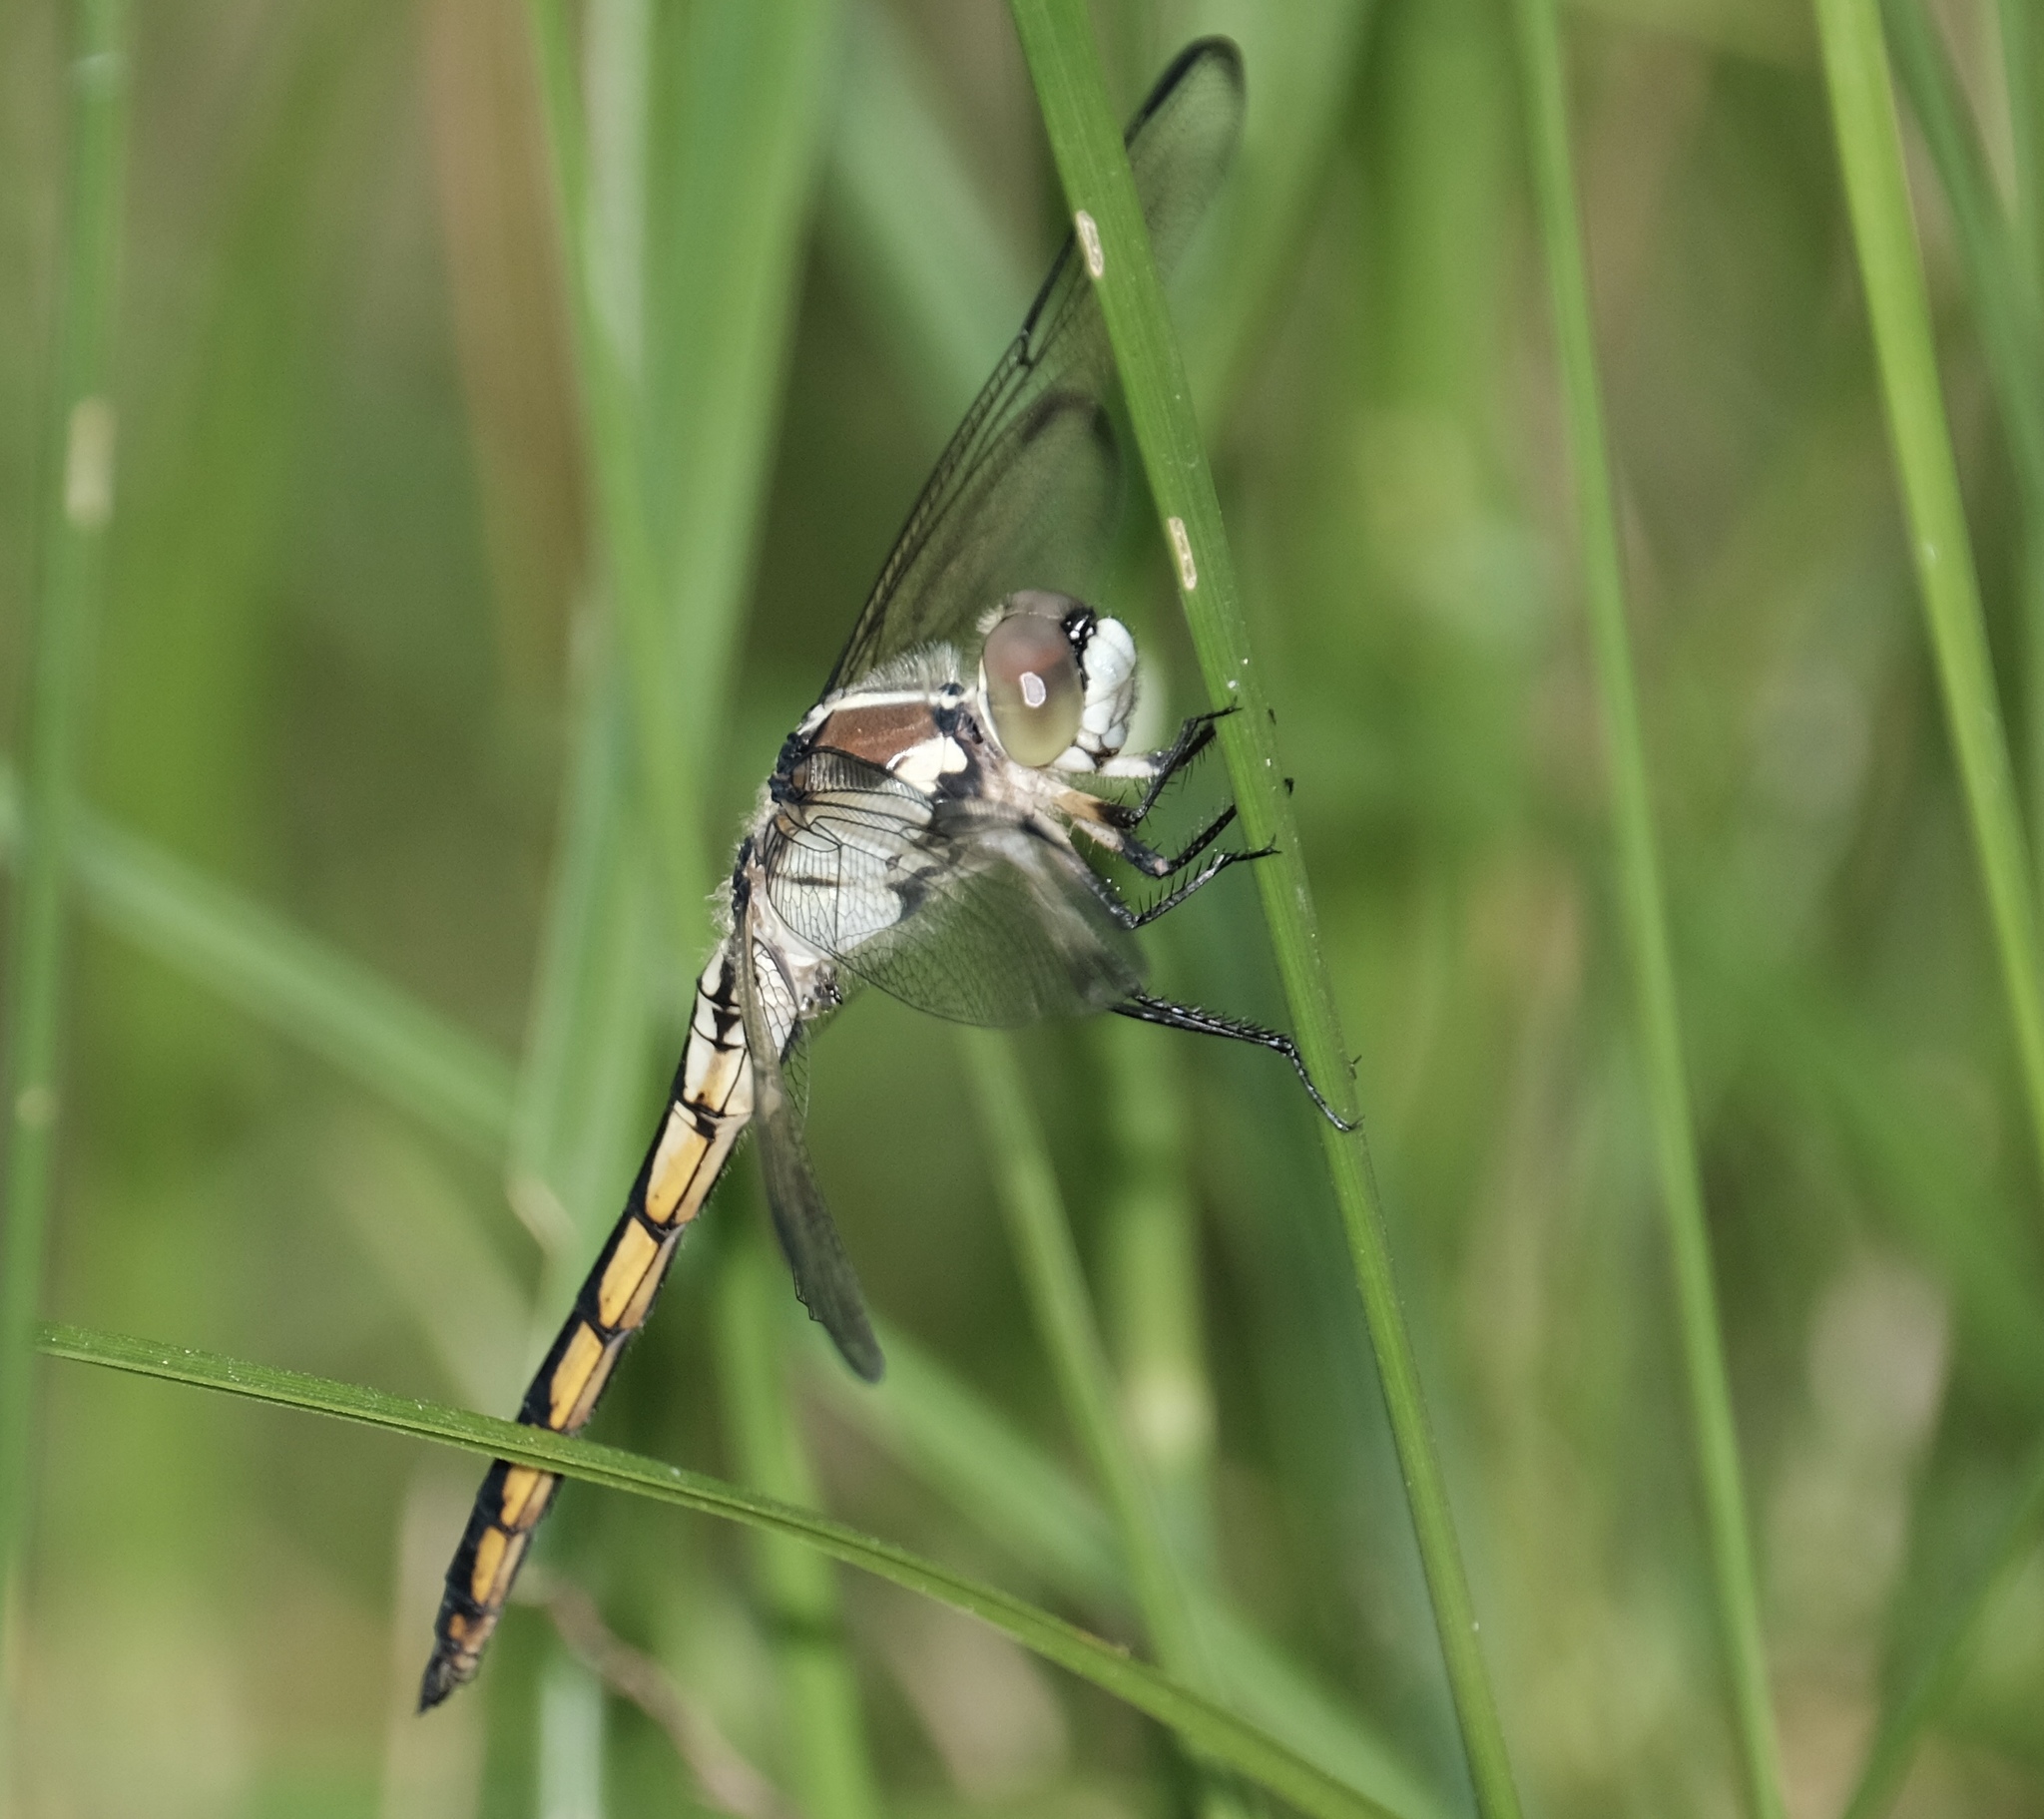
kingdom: Animalia
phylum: Arthropoda
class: Insecta
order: Odonata
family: Libellulidae
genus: Libellula
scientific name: Libellula vibrans
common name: Great blue skimmer
